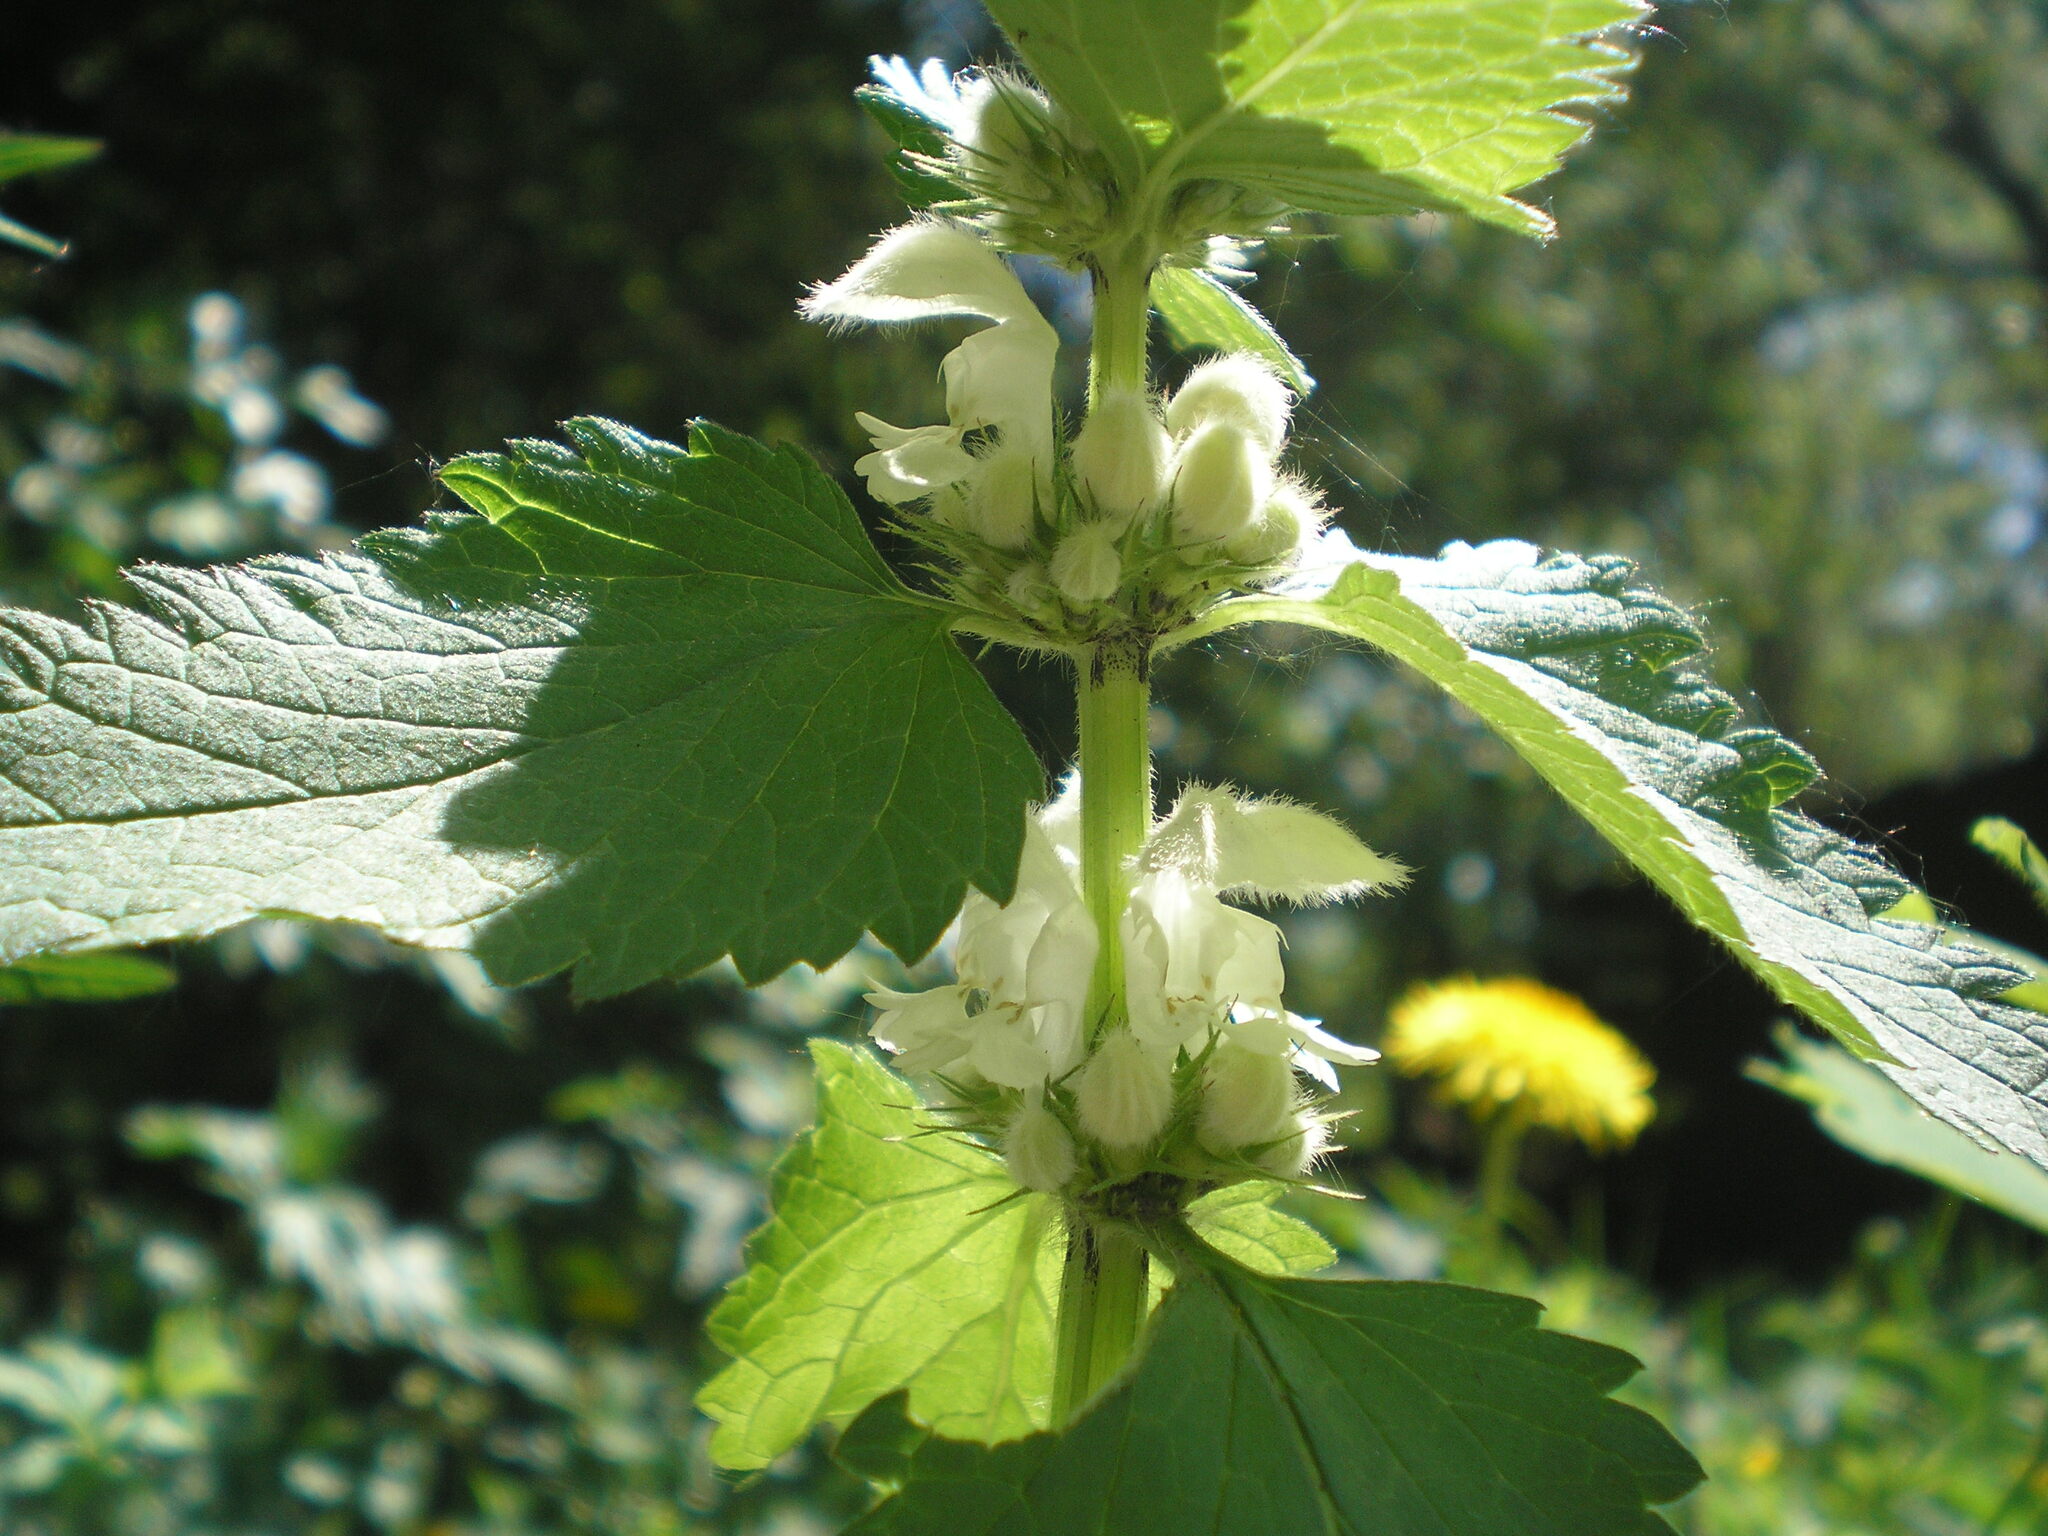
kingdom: Plantae
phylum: Tracheophyta
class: Magnoliopsida
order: Lamiales
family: Lamiaceae
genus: Lamium
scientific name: Lamium album
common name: White dead-nettle
